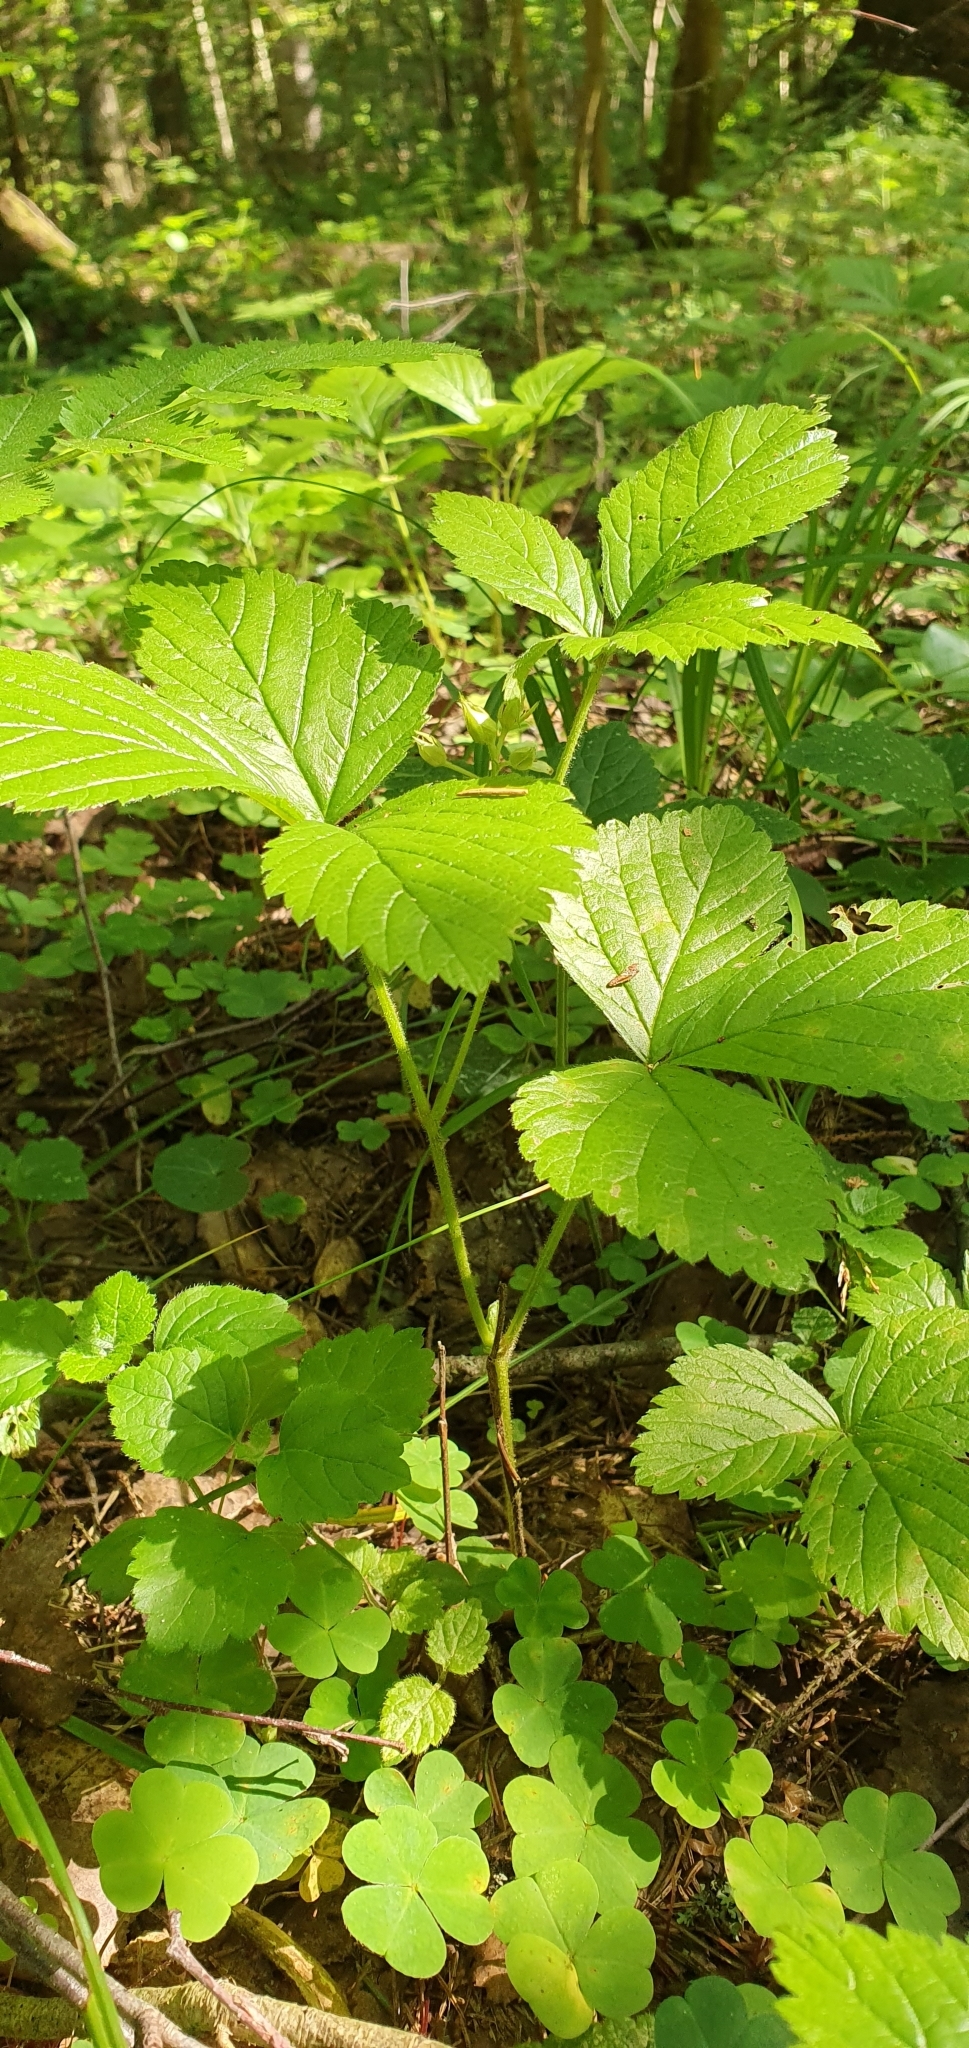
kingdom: Plantae
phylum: Tracheophyta
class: Magnoliopsida
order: Rosales
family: Rosaceae
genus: Rubus
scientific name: Rubus saxatilis
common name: Stone bramble
